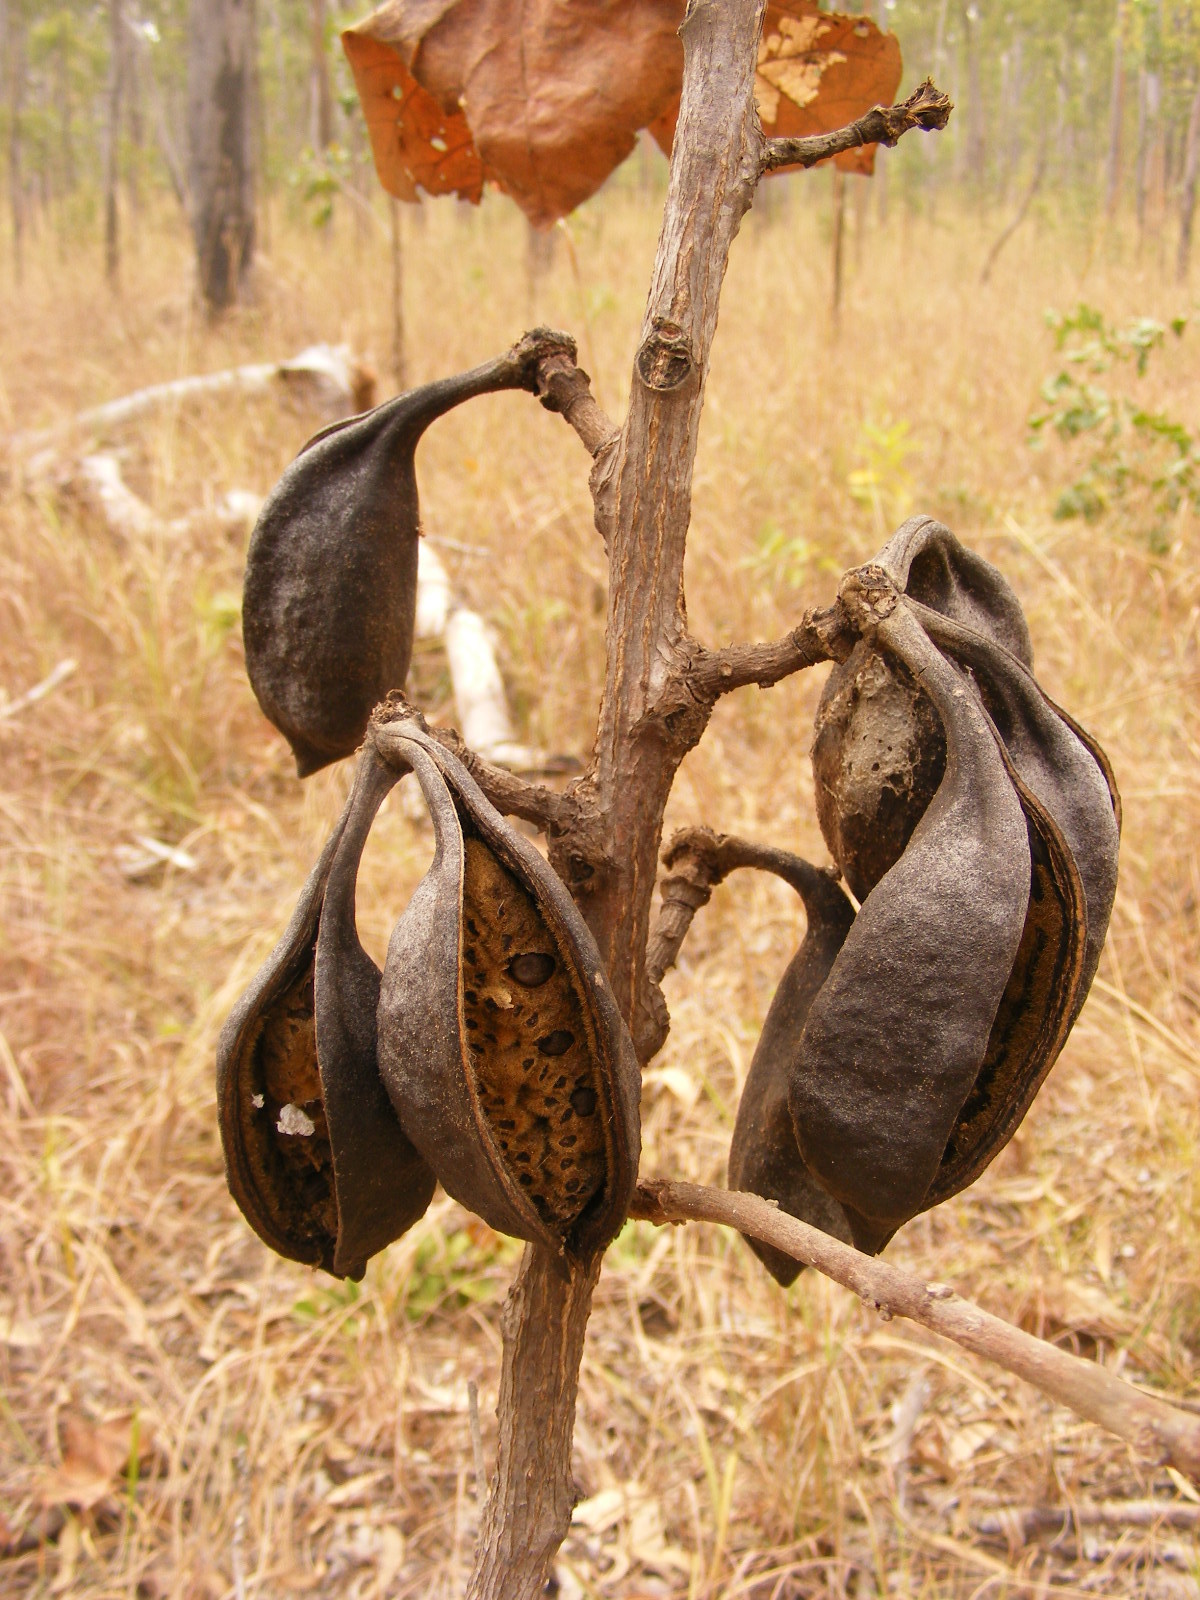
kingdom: Plantae
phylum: Tracheophyta
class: Magnoliopsida
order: Malvales
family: Malvaceae
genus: Brachychiton
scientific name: Brachychiton muellerianus
